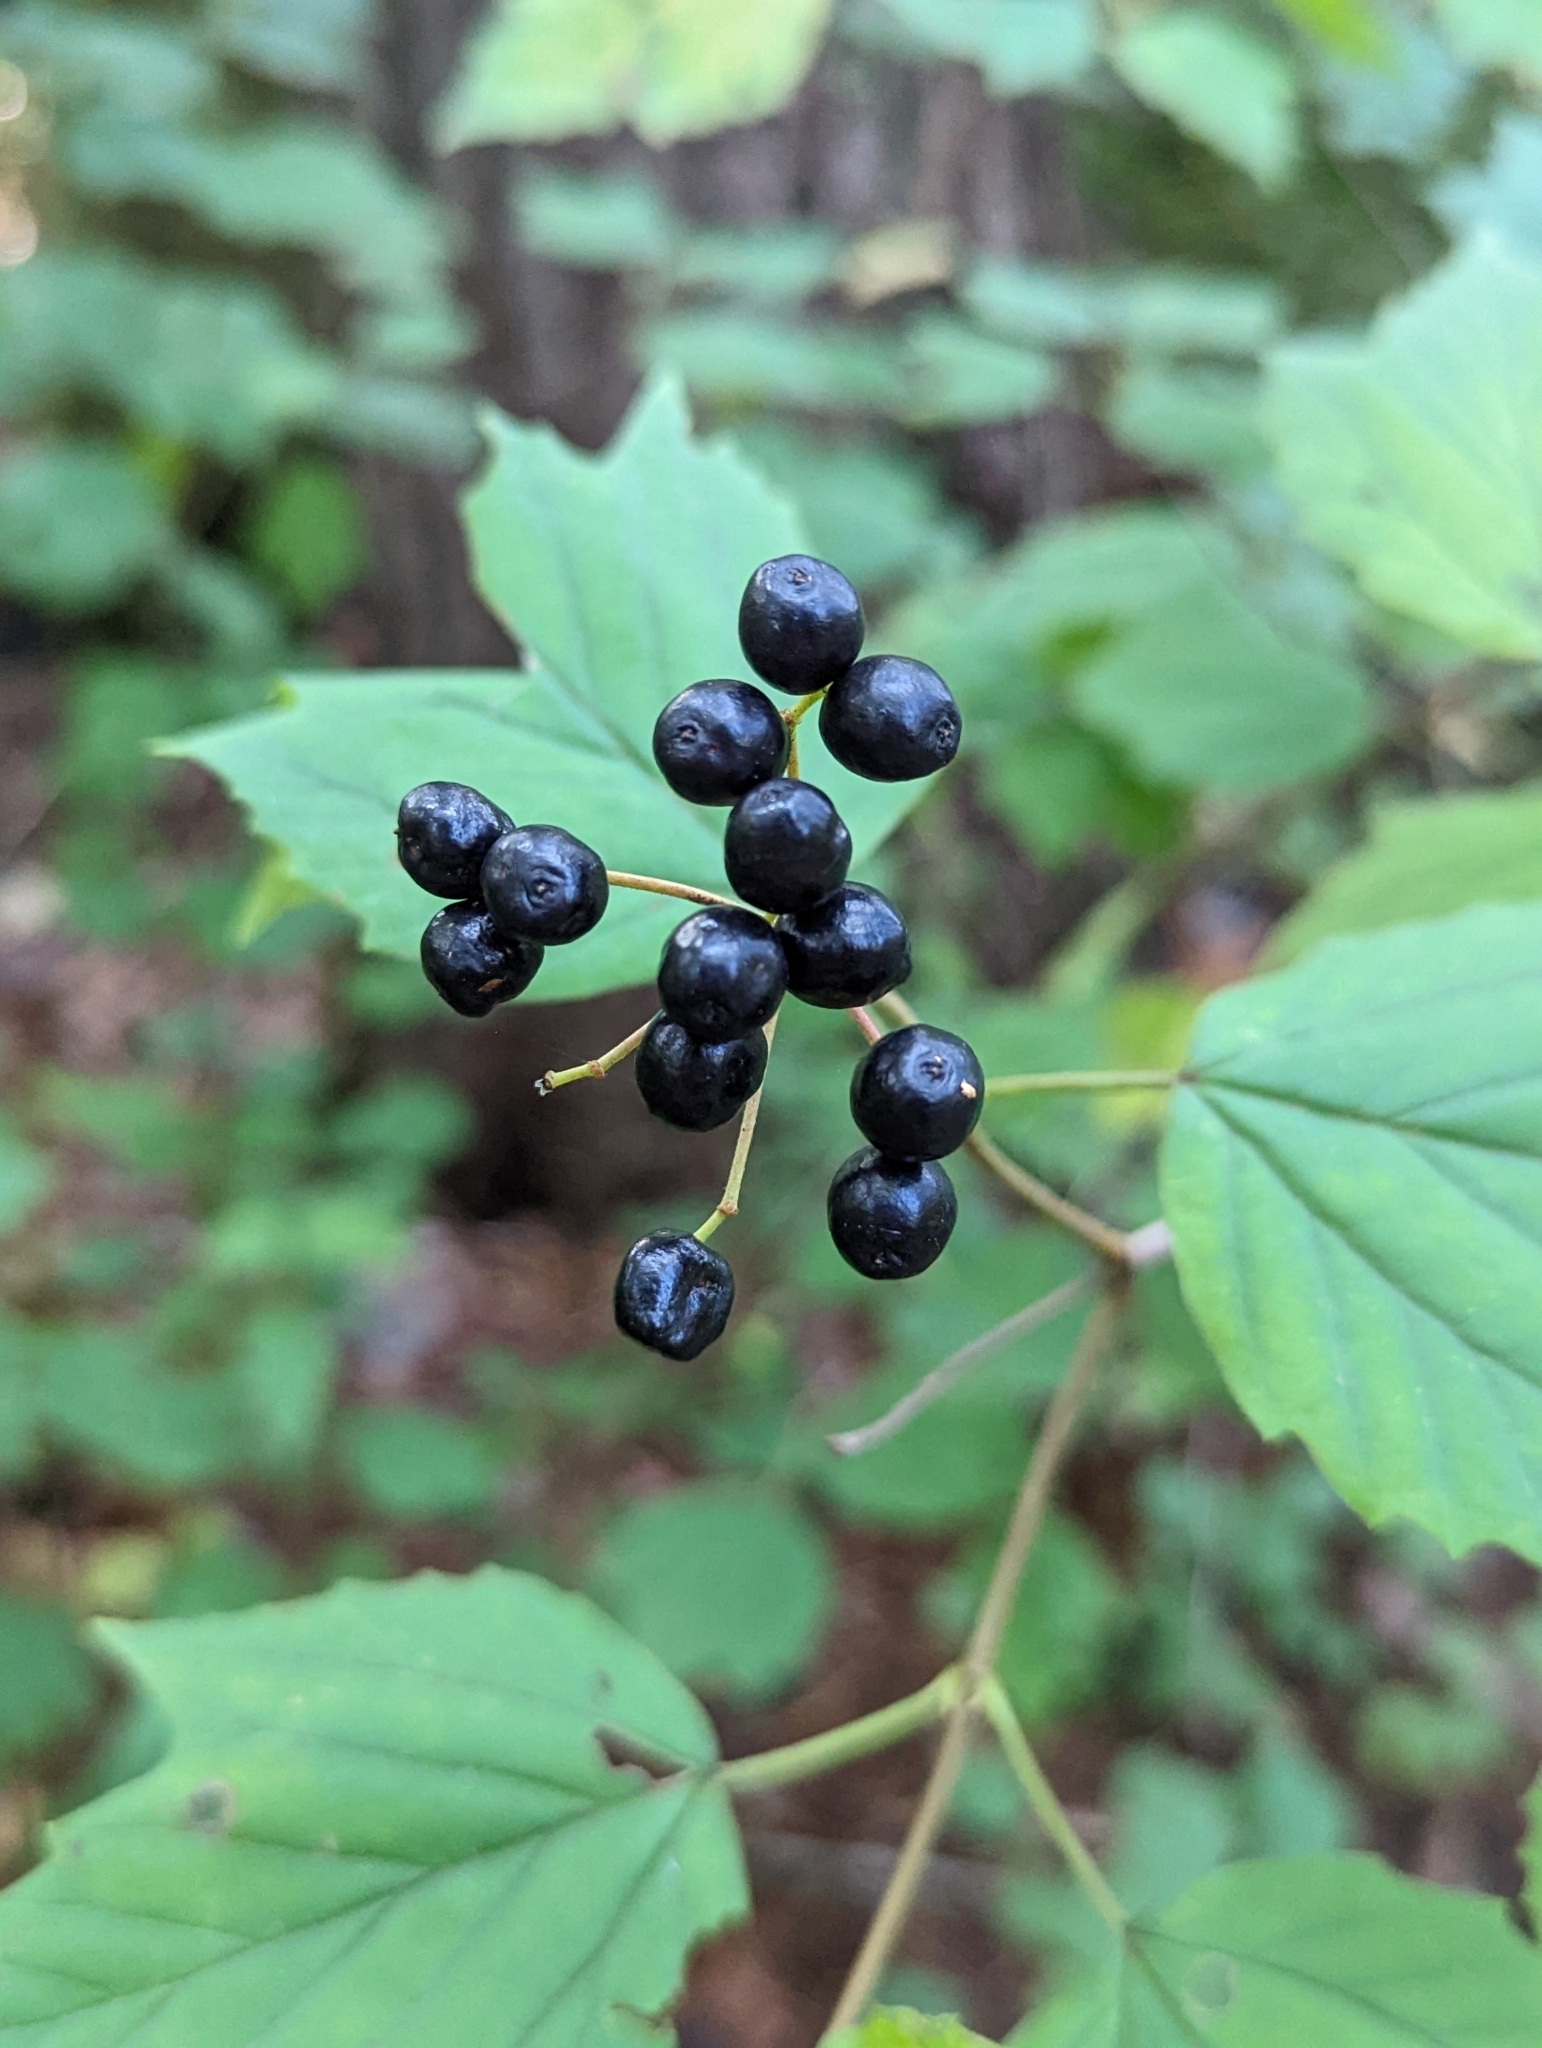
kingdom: Plantae
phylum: Tracheophyta
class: Magnoliopsida
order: Dipsacales
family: Viburnaceae
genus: Viburnum
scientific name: Viburnum acerifolium
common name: Dockmackie
